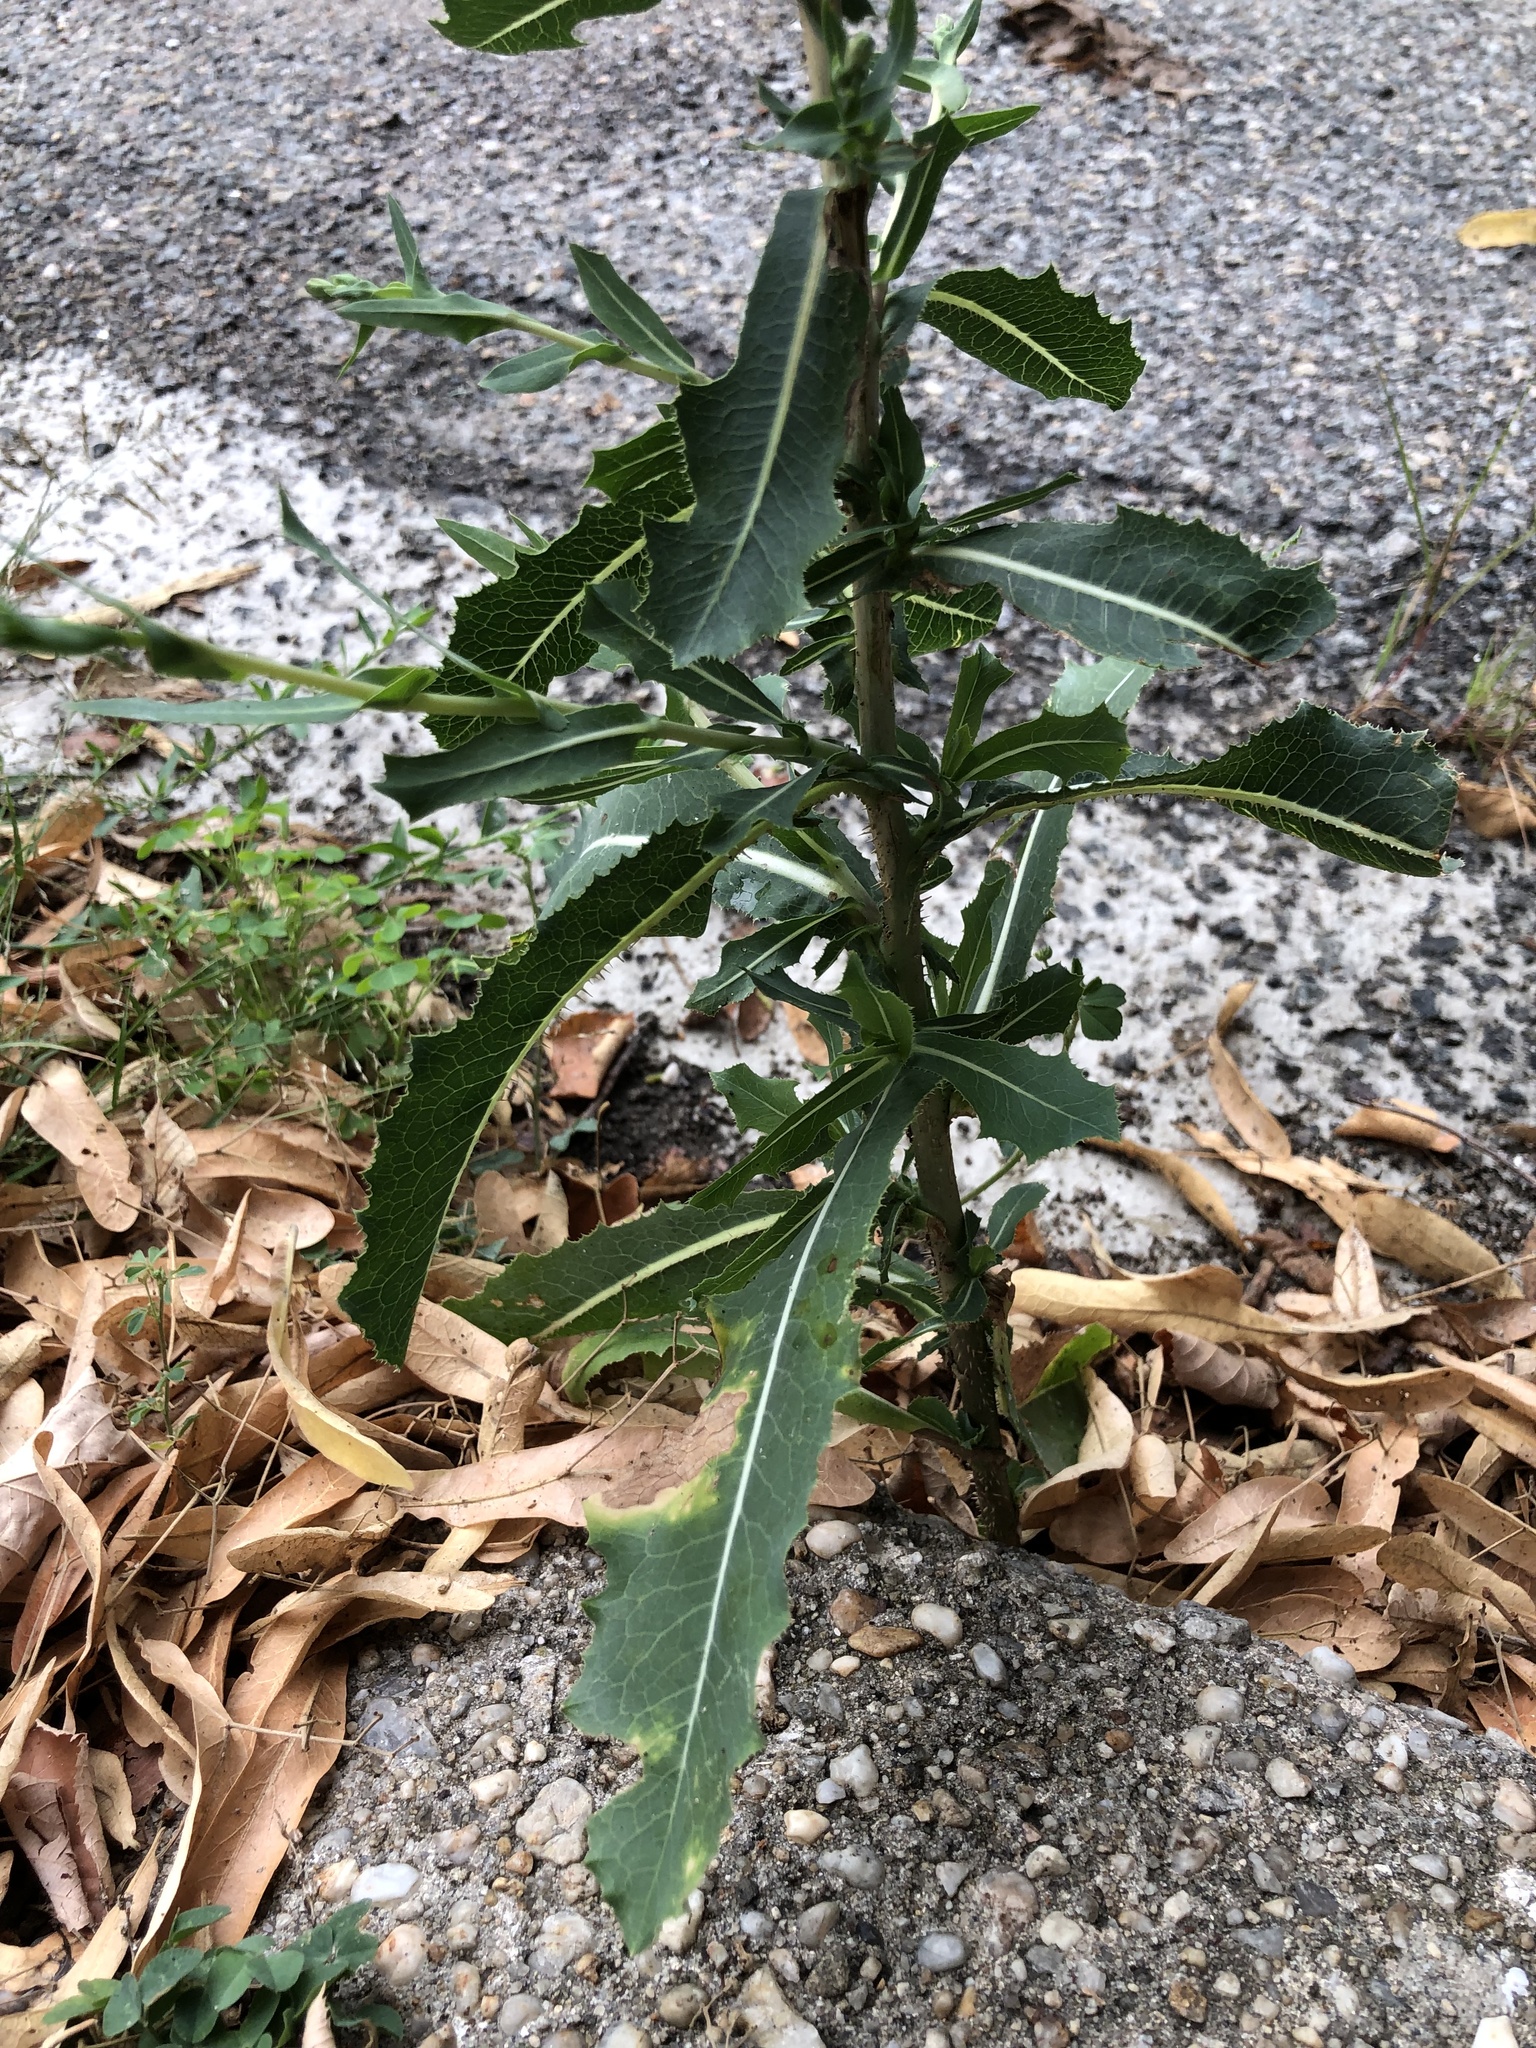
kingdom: Plantae
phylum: Tracheophyta
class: Magnoliopsida
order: Asterales
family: Asteraceae
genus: Lactuca
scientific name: Lactuca serriola
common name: Prickly lettuce
